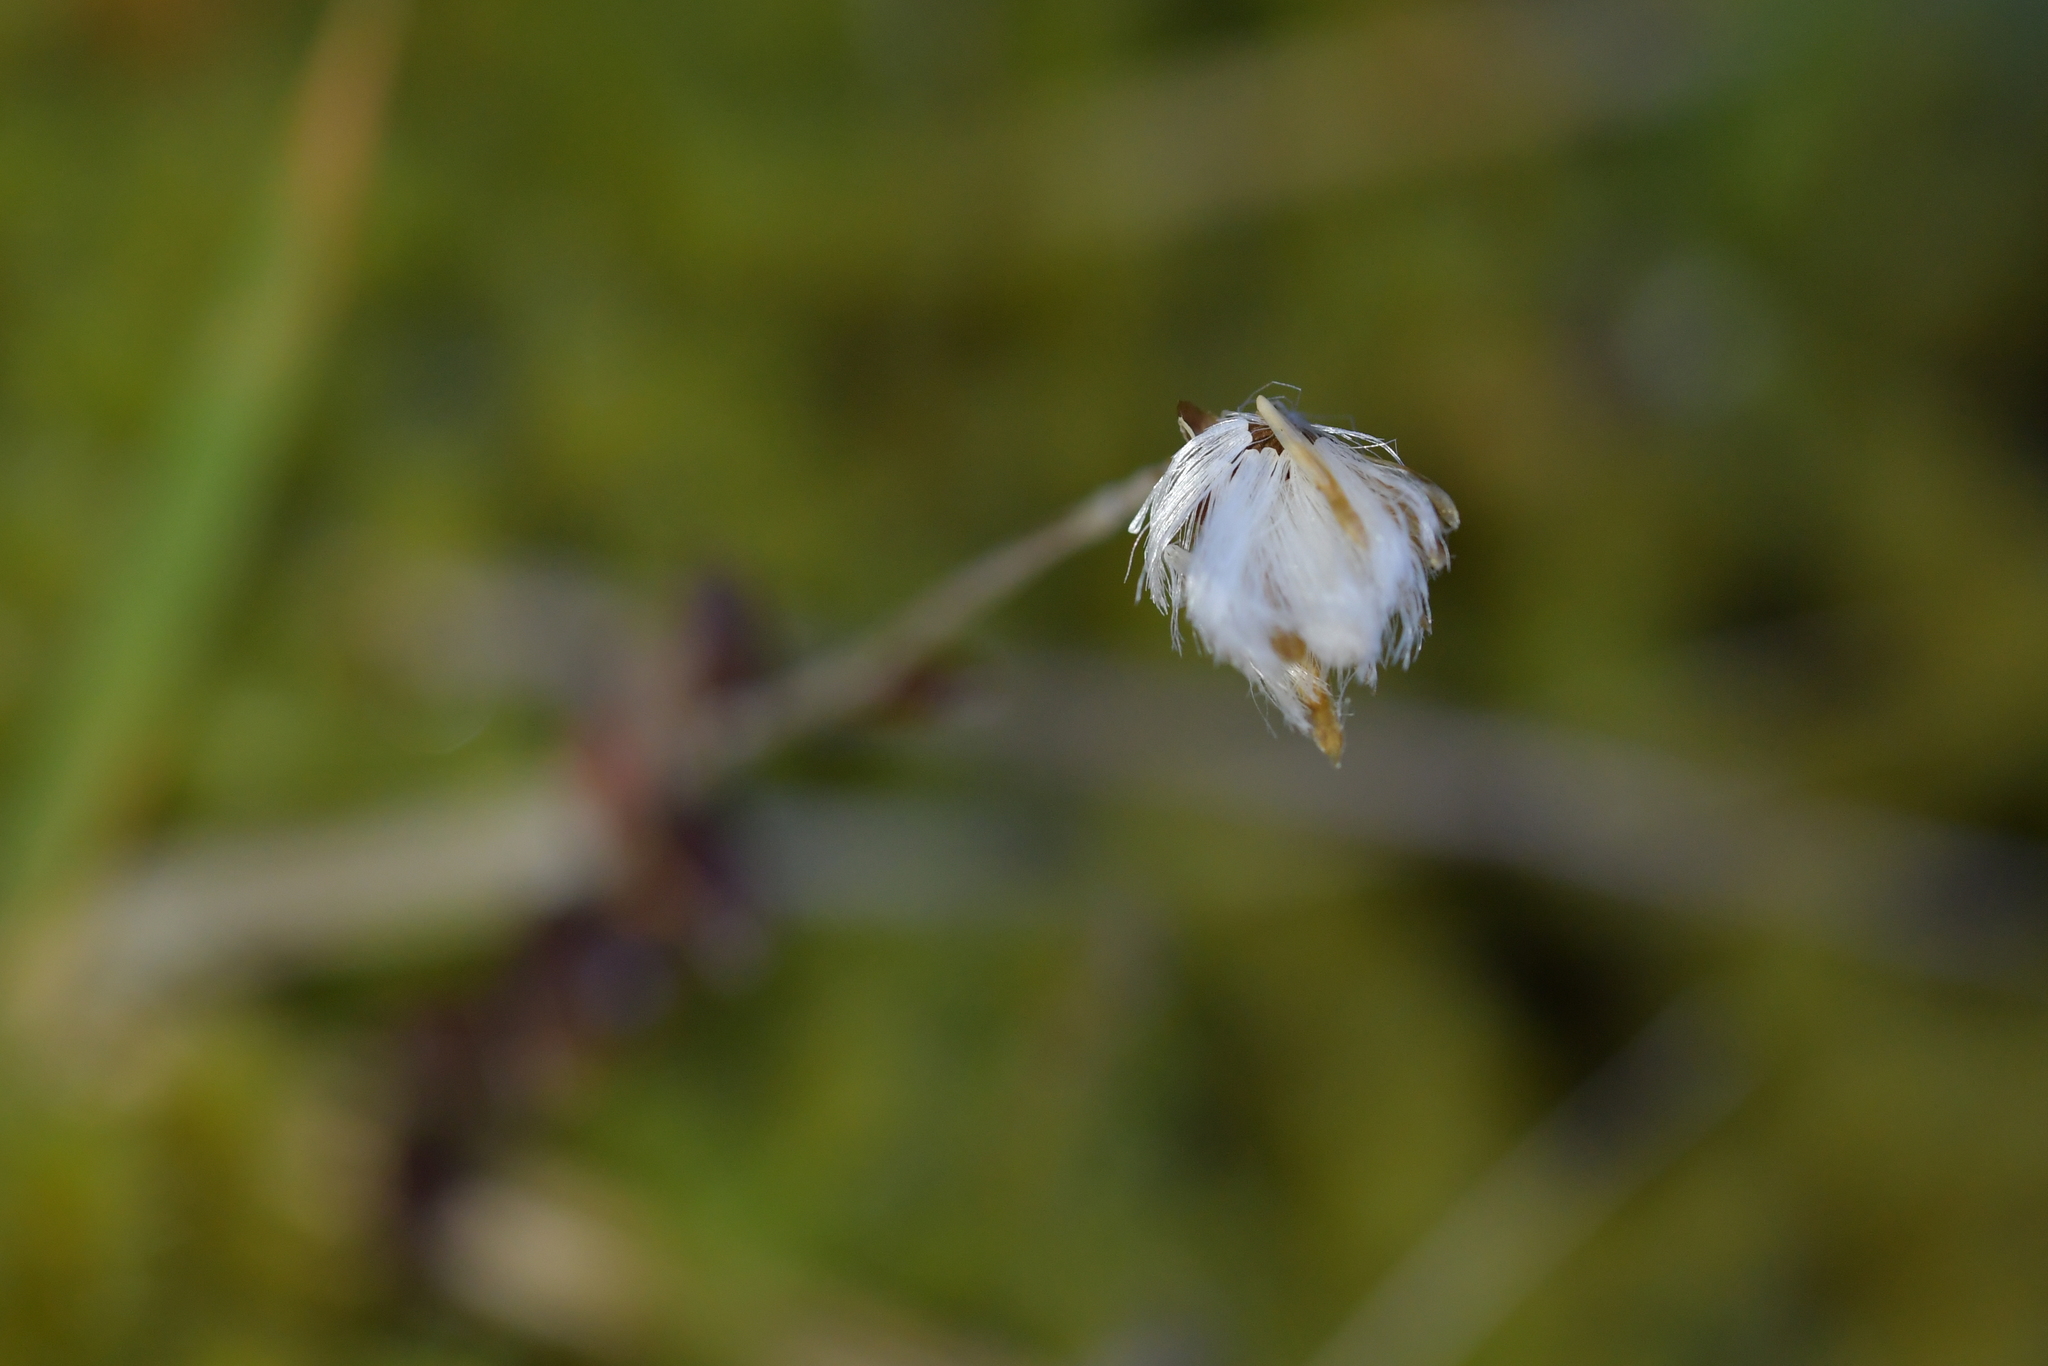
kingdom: Plantae
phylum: Tracheophyta
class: Magnoliopsida
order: Asterales
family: Asteraceae
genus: Helichrysum
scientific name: Helichrysum filicaule
